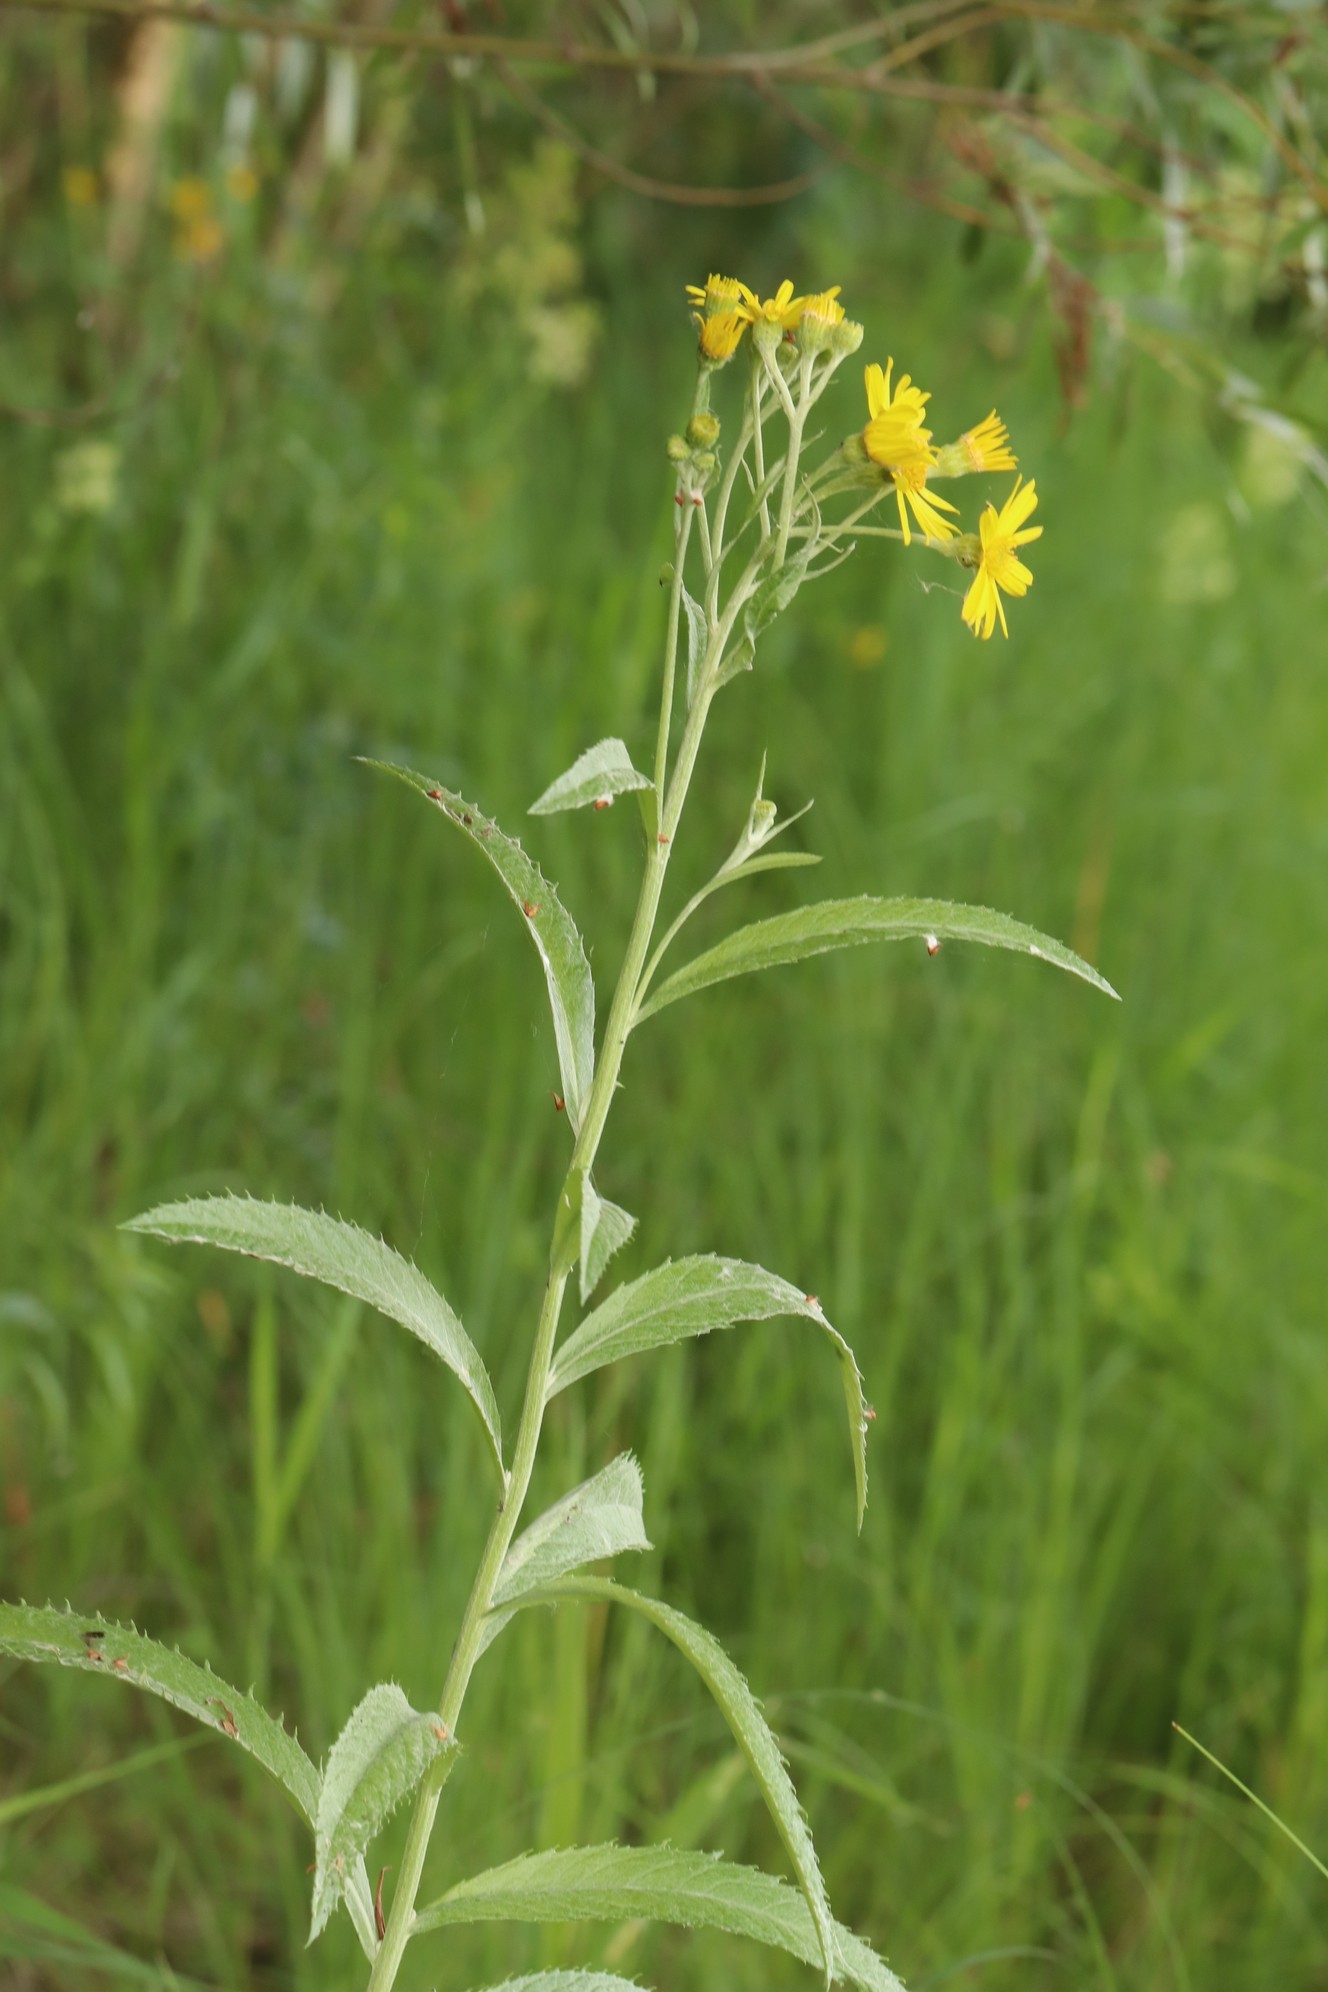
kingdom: Plantae
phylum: Tracheophyta
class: Magnoliopsida
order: Asterales
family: Asteraceae
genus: Jacobaea
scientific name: Jacobaea paludosa
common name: Fen ragwort
